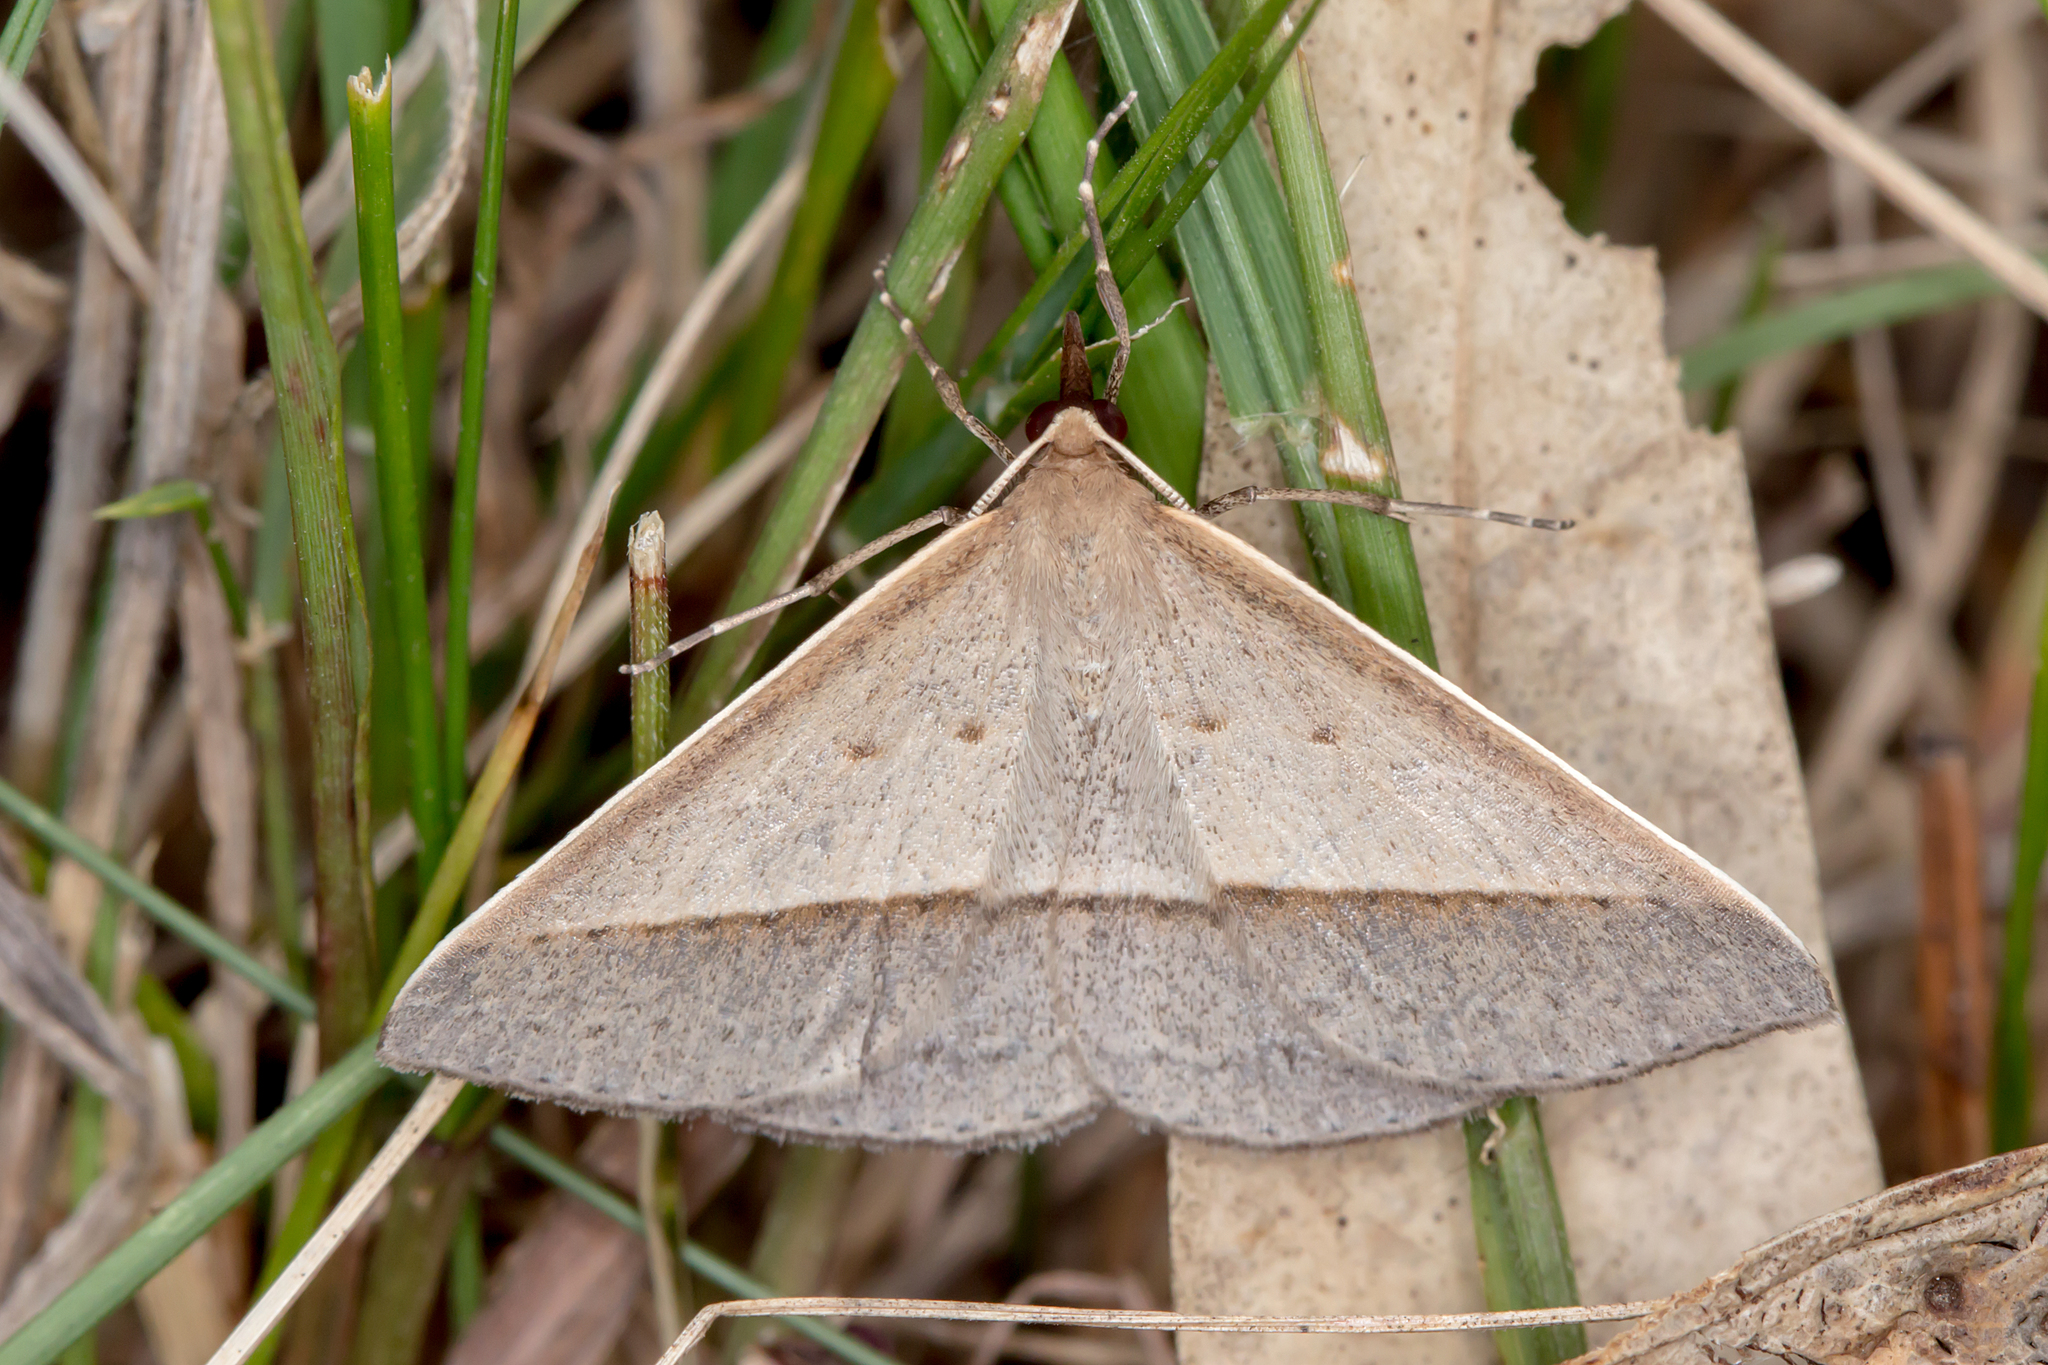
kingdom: Animalia
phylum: Arthropoda
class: Insecta
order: Lepidoptera
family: Geometridae
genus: Epidesmia
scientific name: Epidesmia tryxaria
